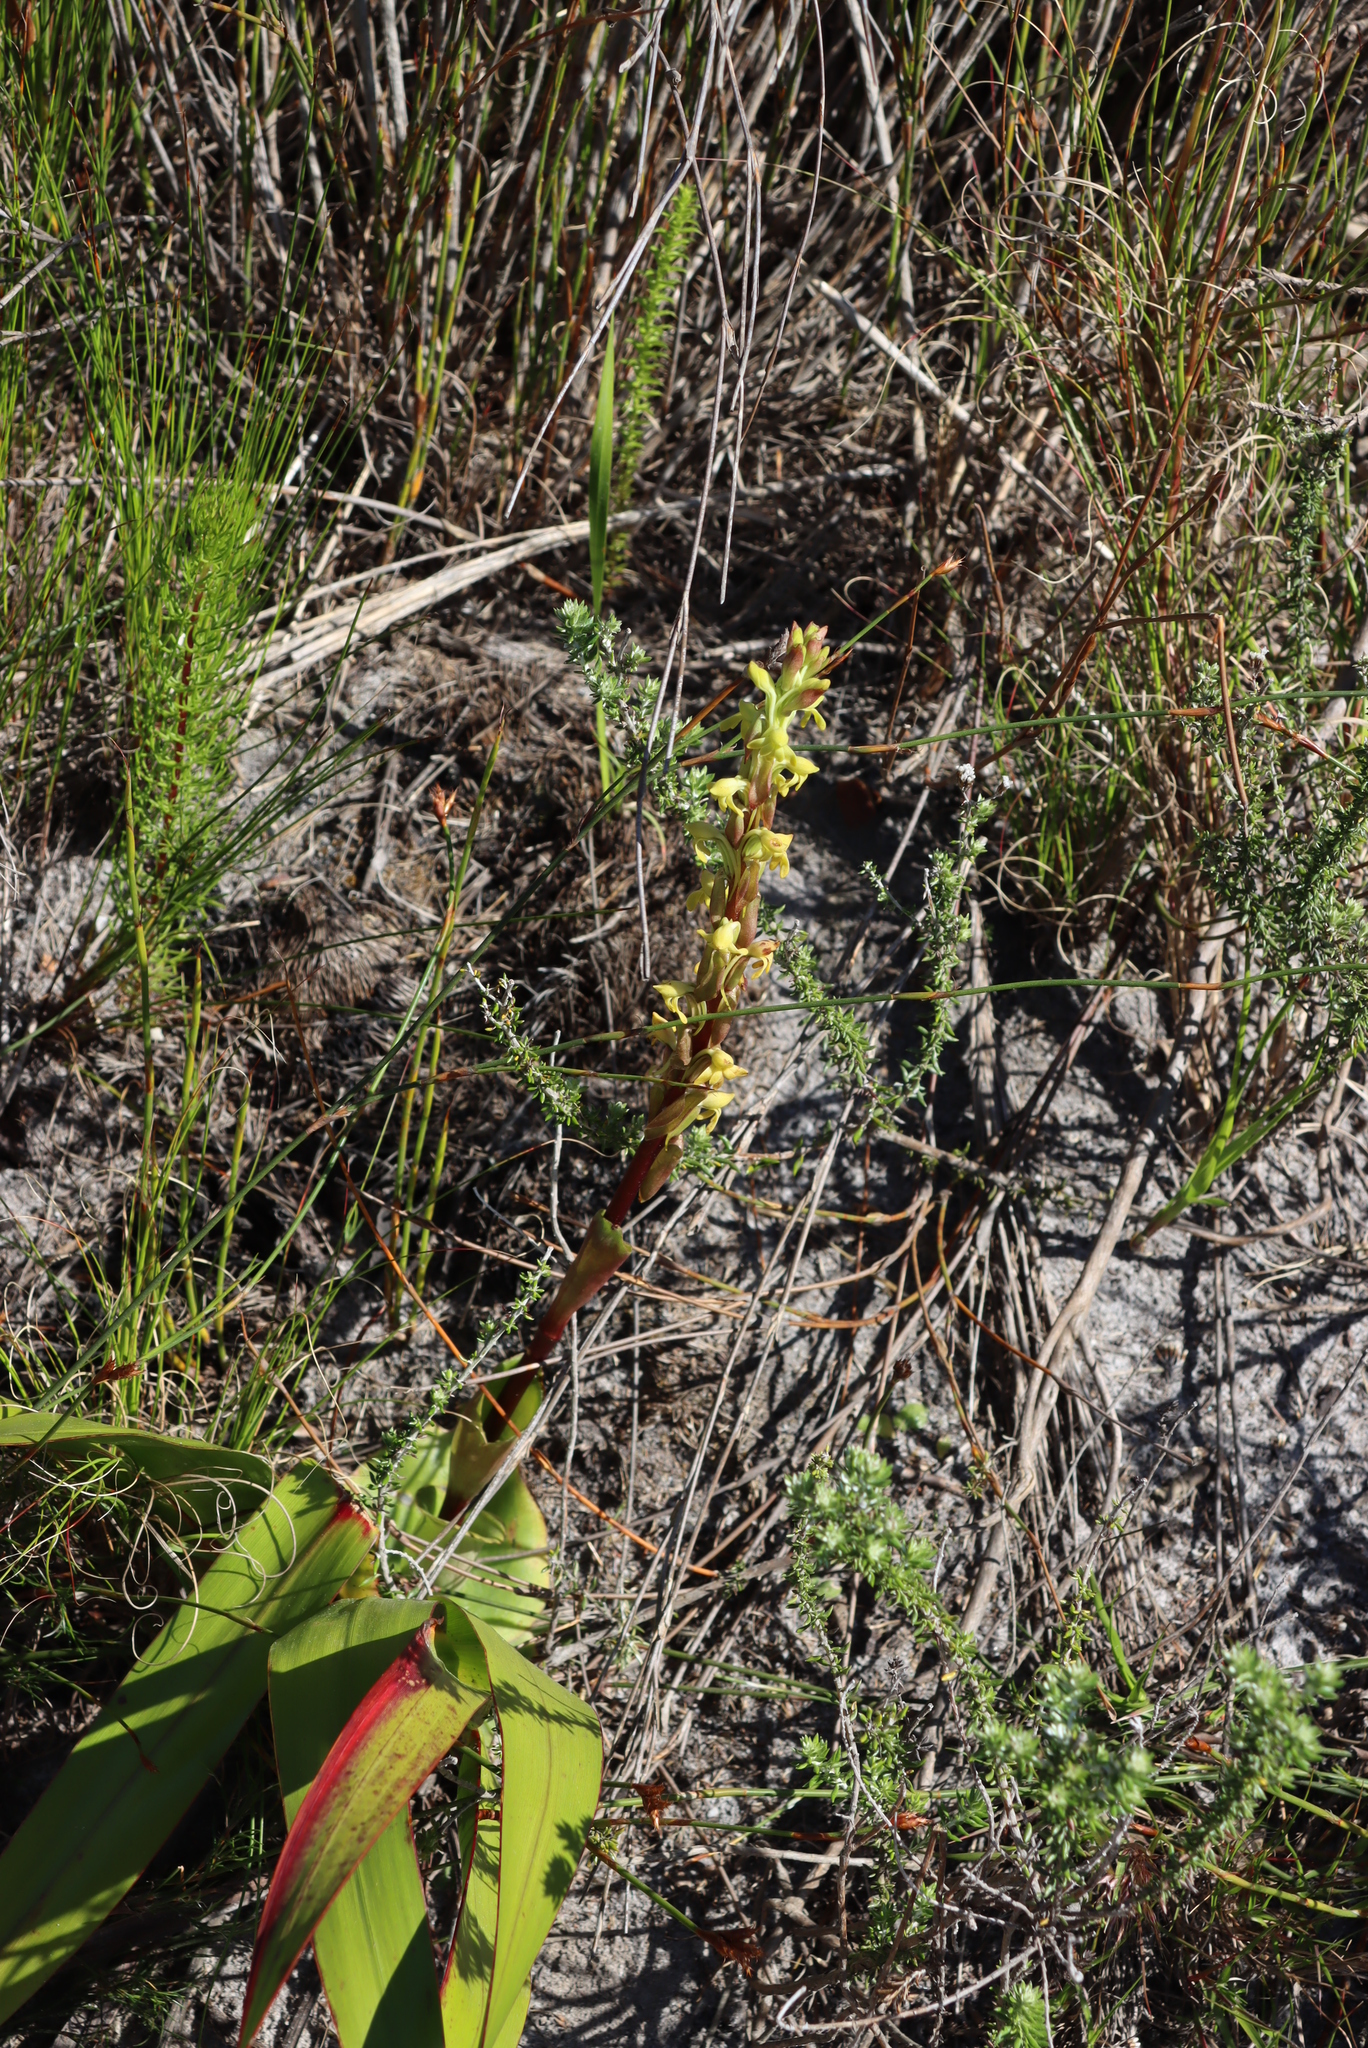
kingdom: Plantae
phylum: Tracheophyta
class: Liliopsida
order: Asparagales
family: Orchidaceae
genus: Satyrium
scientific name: Satyrium bicorne
